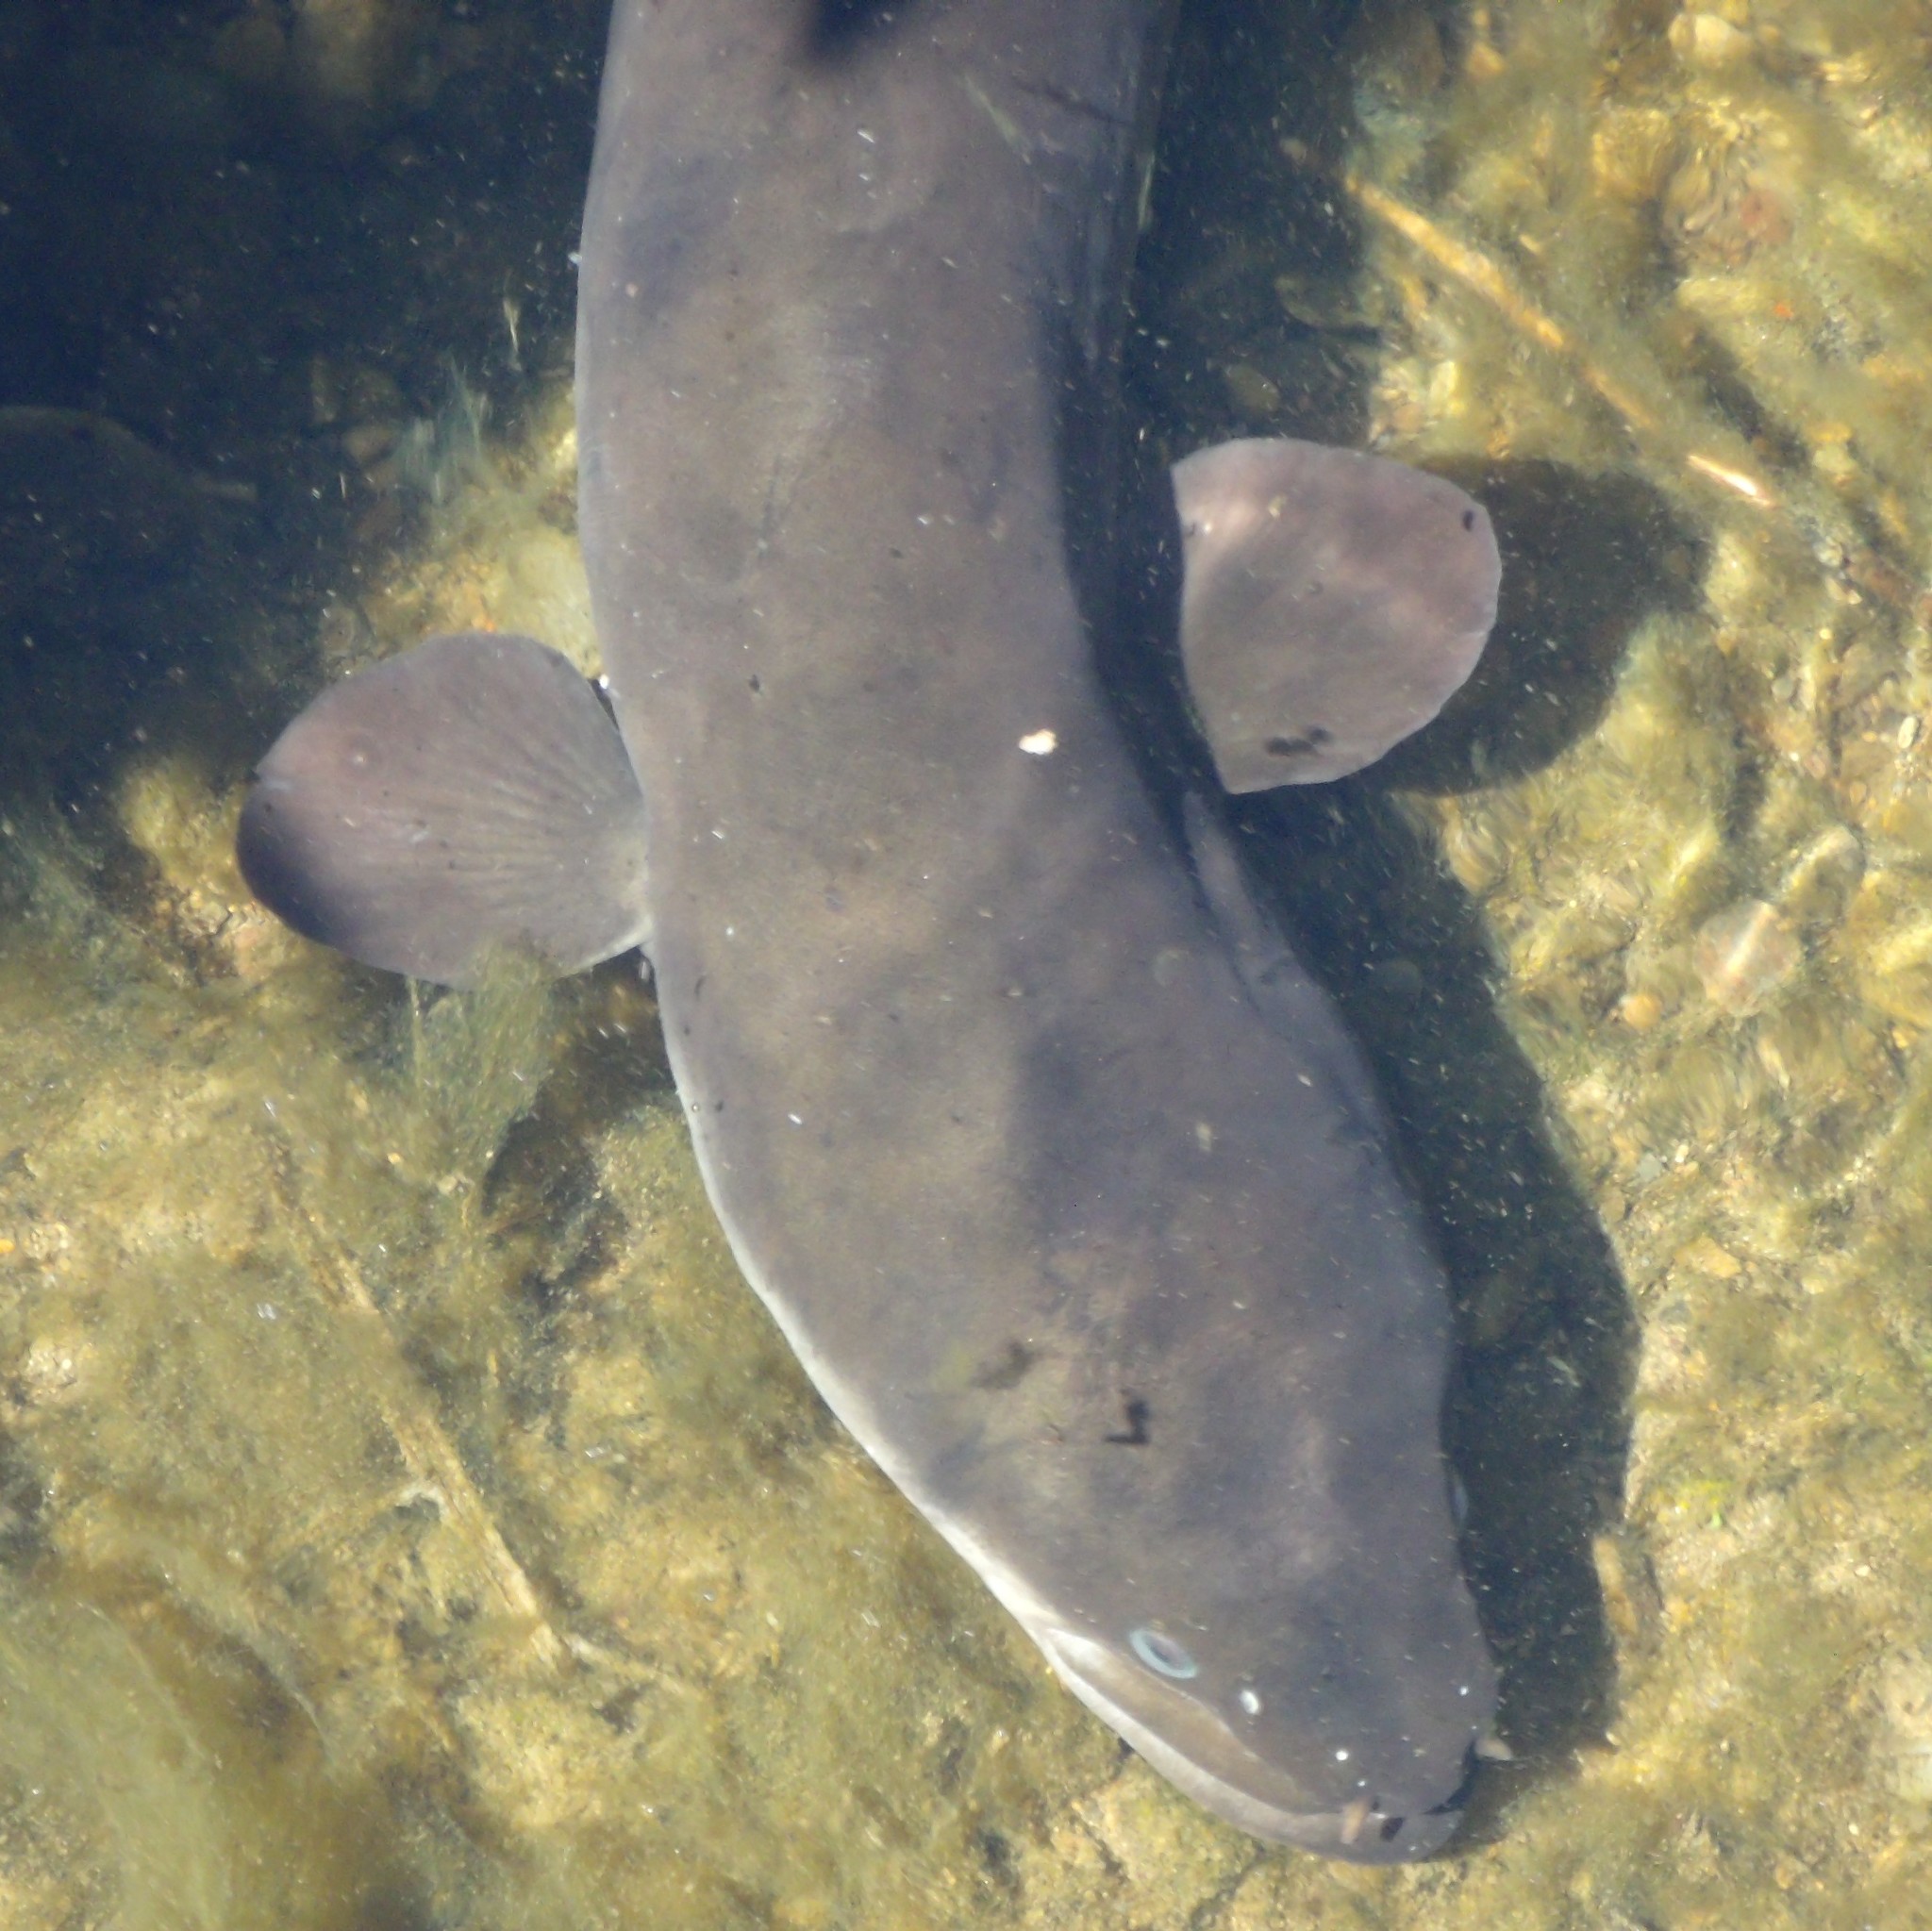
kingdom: Animalia
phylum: Chordata
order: Anguilliformes
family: Anguillidae
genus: Anguilla
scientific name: Anguilla dieffenbachii
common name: New zealand longfin eel
